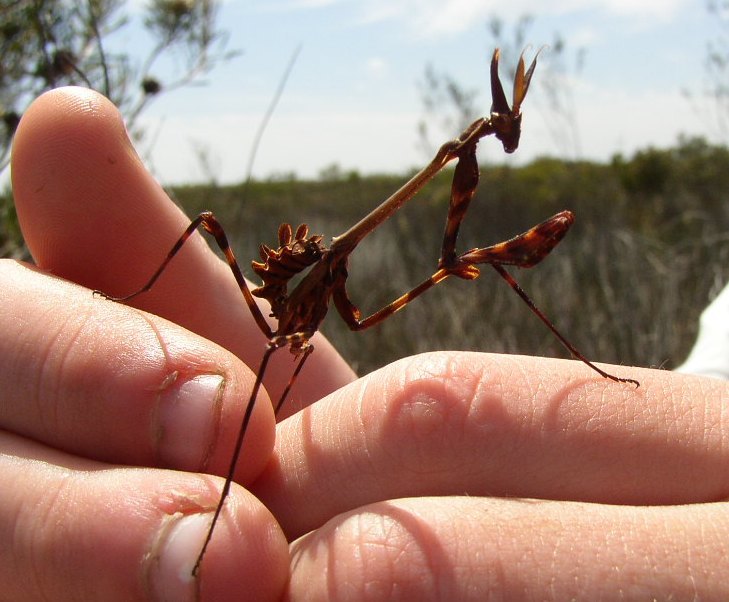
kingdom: Animalia
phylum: Arthropoda
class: Insecta
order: Mantodea
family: Empusidae
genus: Empusa
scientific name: Empusa binotata
